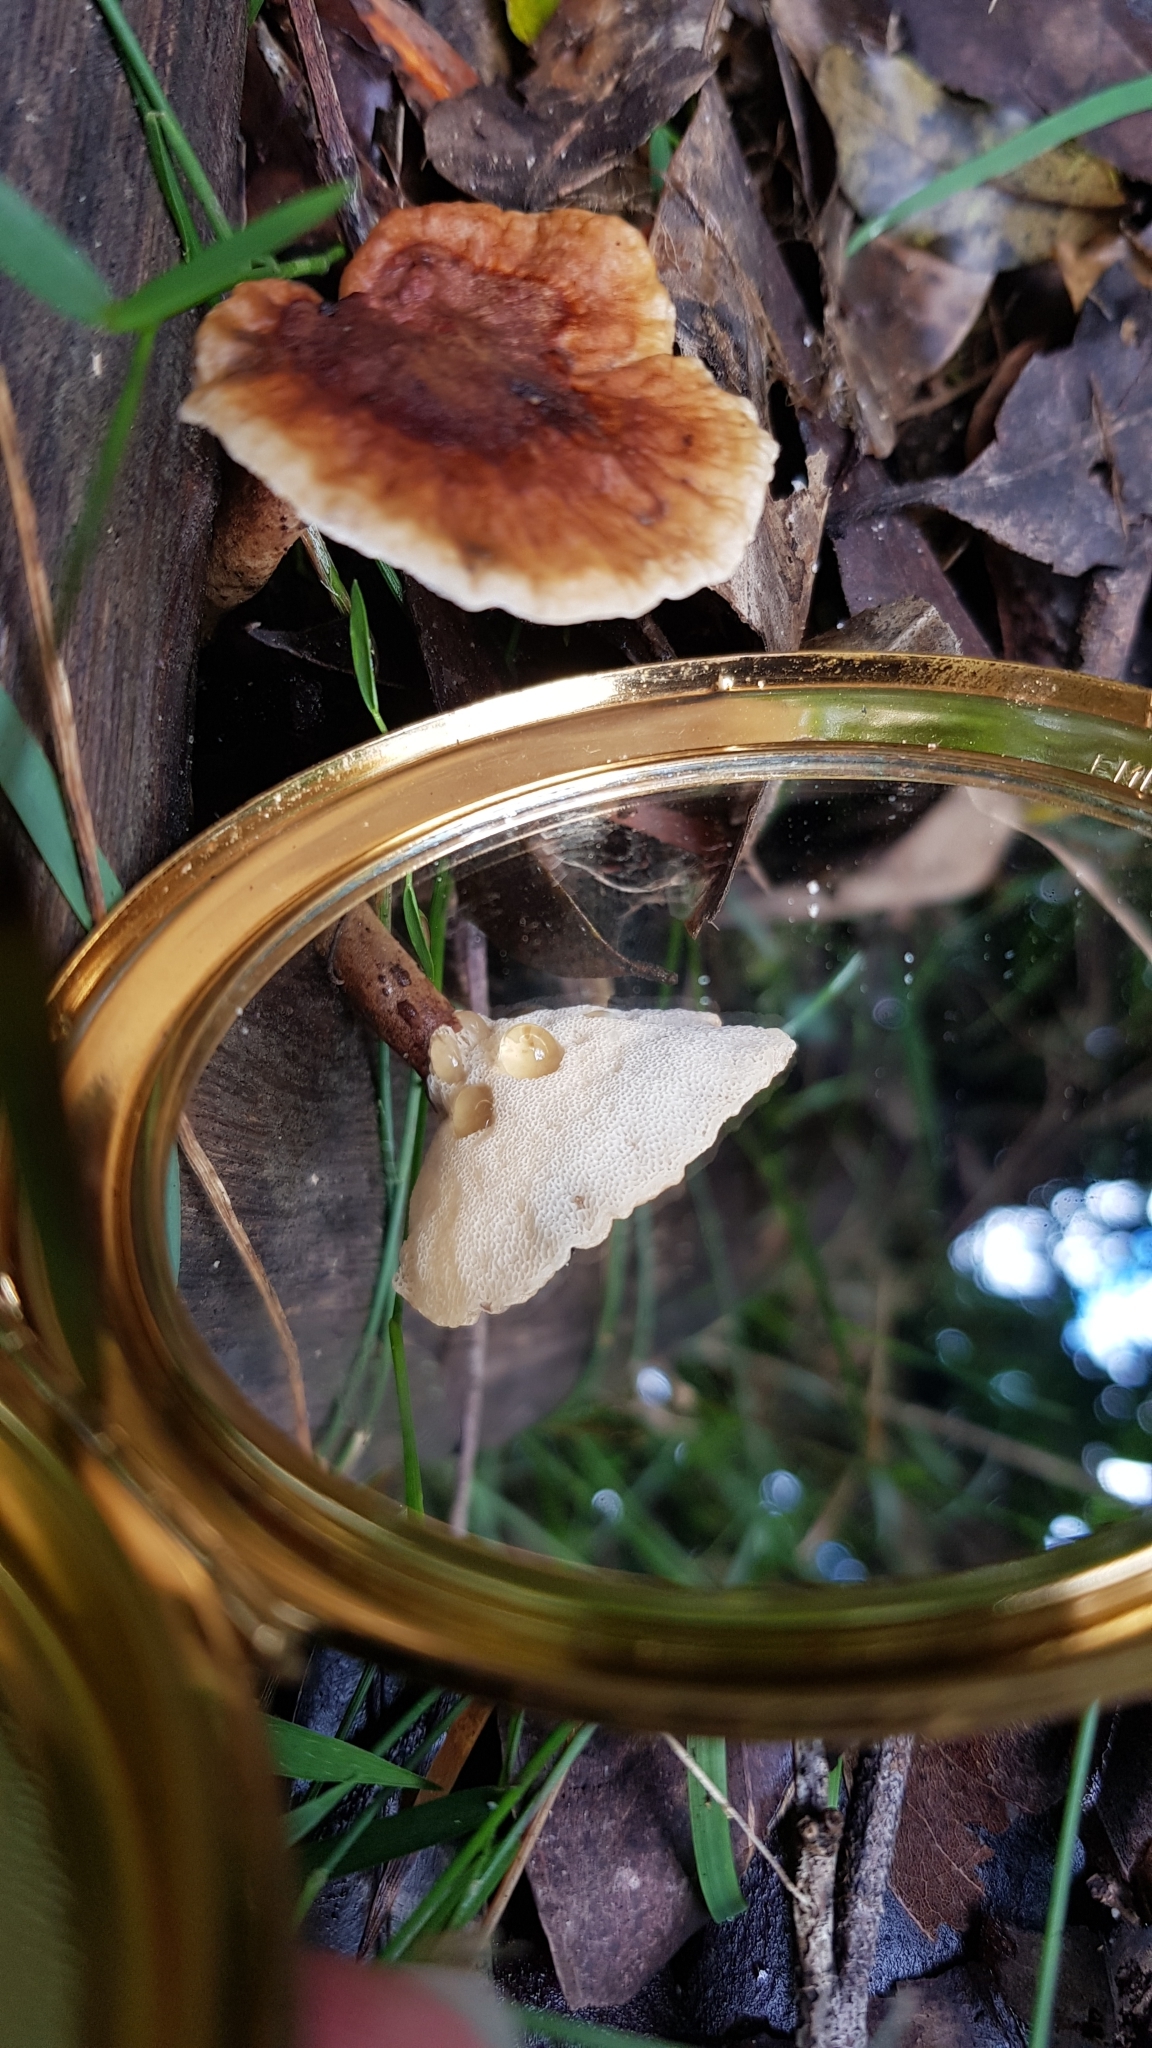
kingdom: Fungi
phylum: Basidiomycota
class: Agaricomycetes
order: Polyporales
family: Ganodermataceae
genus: Sanguinoderma
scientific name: Sanguinoderma rude
